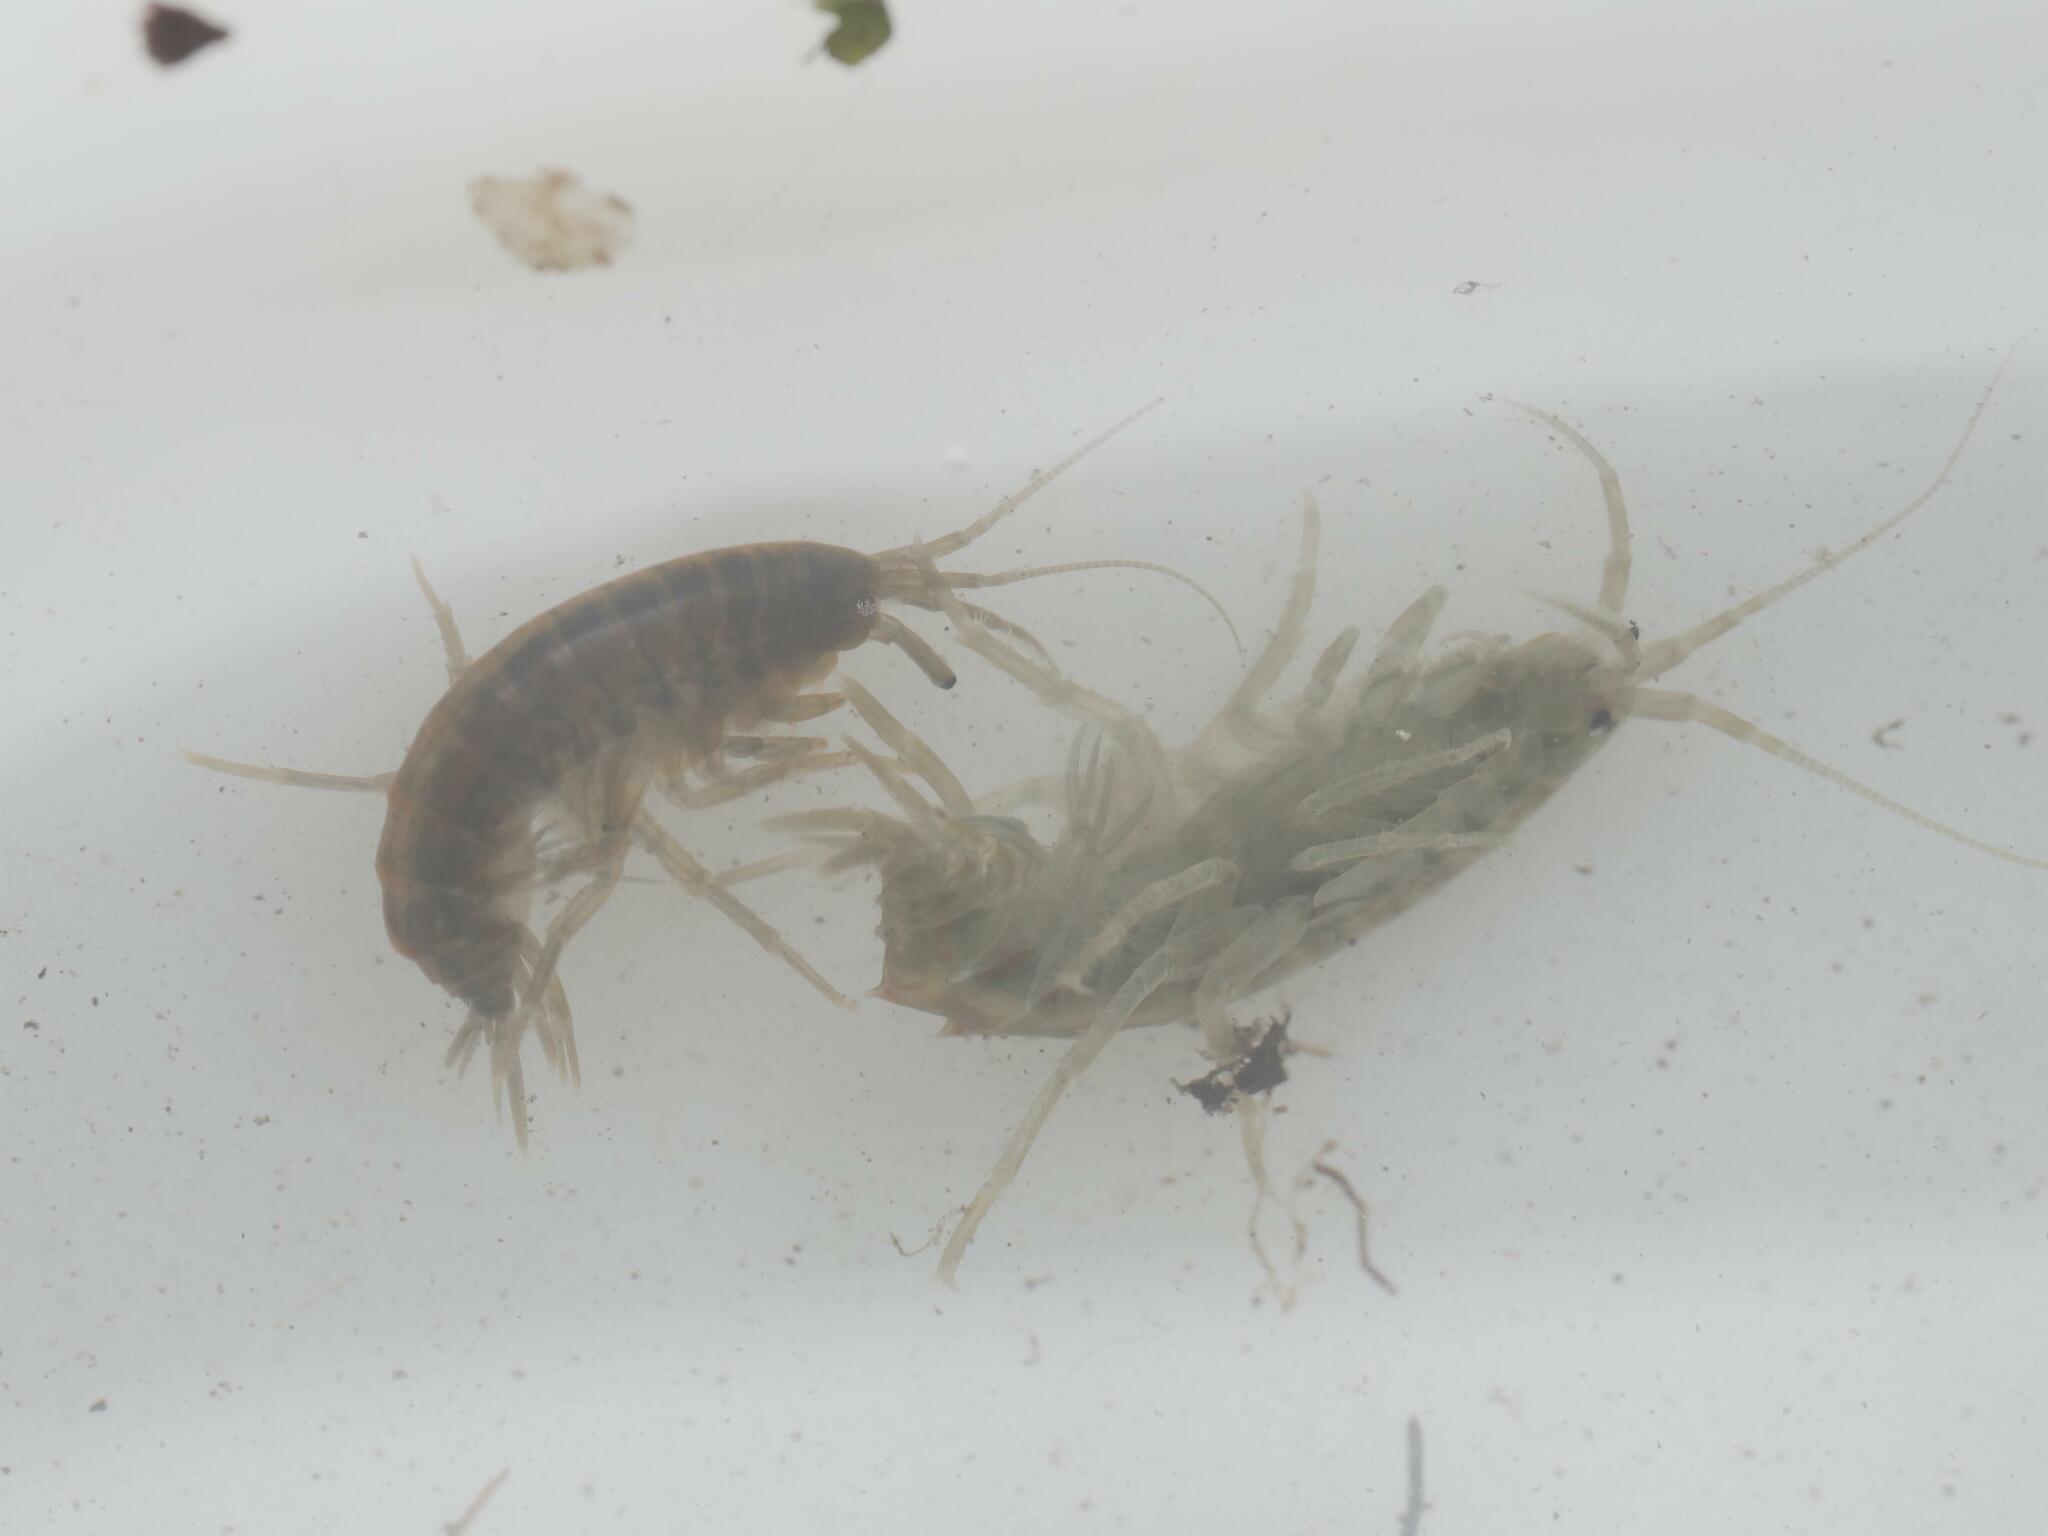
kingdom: Animalia
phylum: Arthropoda
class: Malacostraca
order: Amphipoda
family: Gammaridae
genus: Gammarus
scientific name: Gammarus roeselii
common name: Lacustrine amphipod
